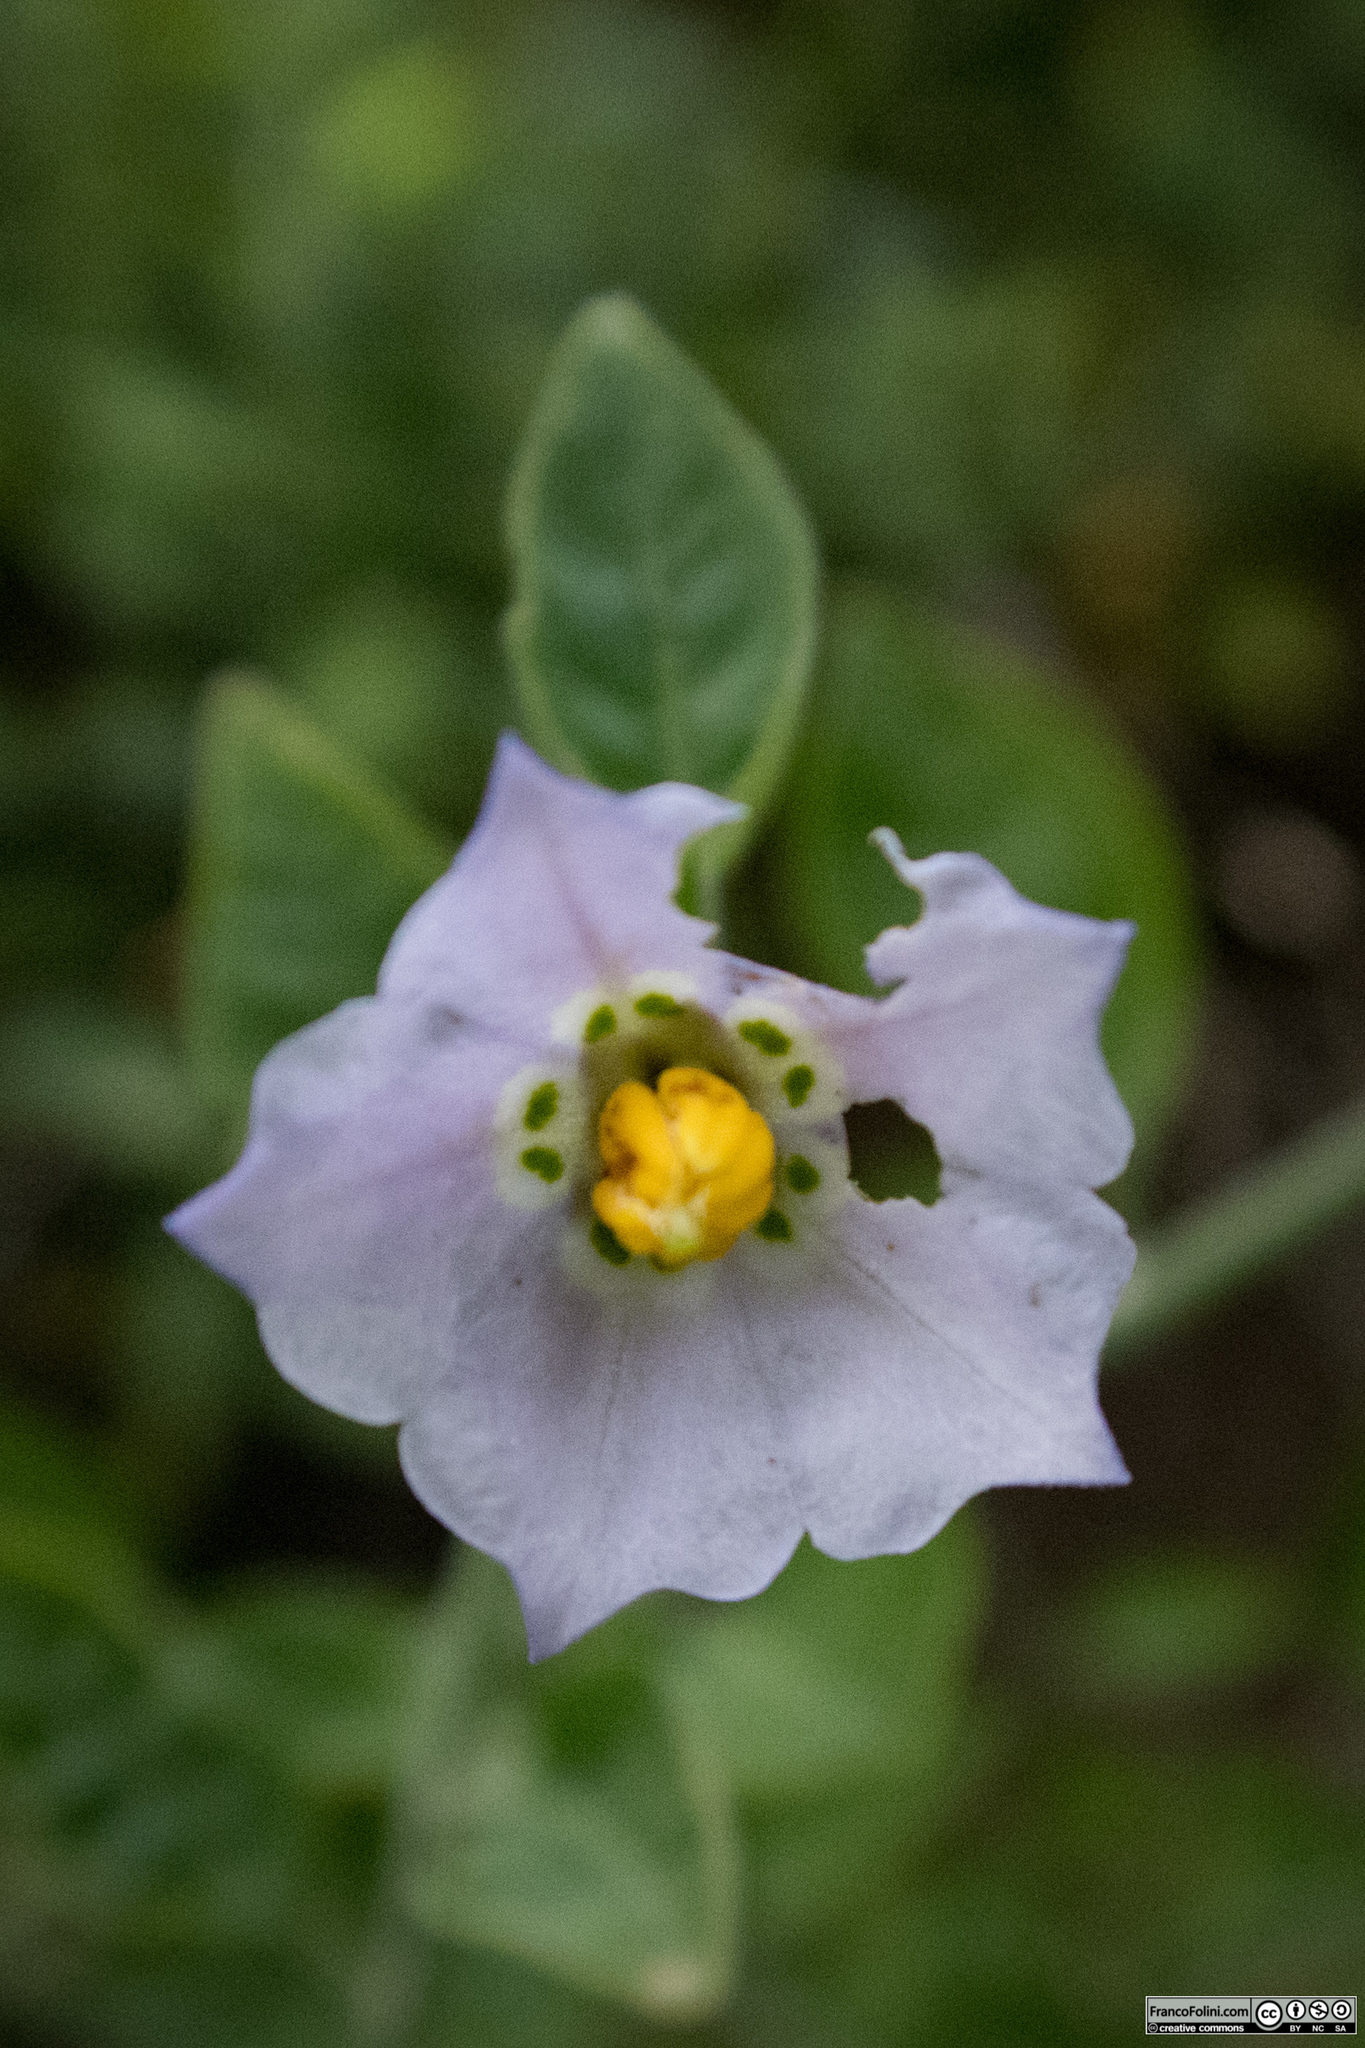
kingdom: Plantae
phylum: Tracheophyta
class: Magnoliopsida
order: Solanales
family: Solanaceae
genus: Solanum
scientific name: Solanum umbelliferum
